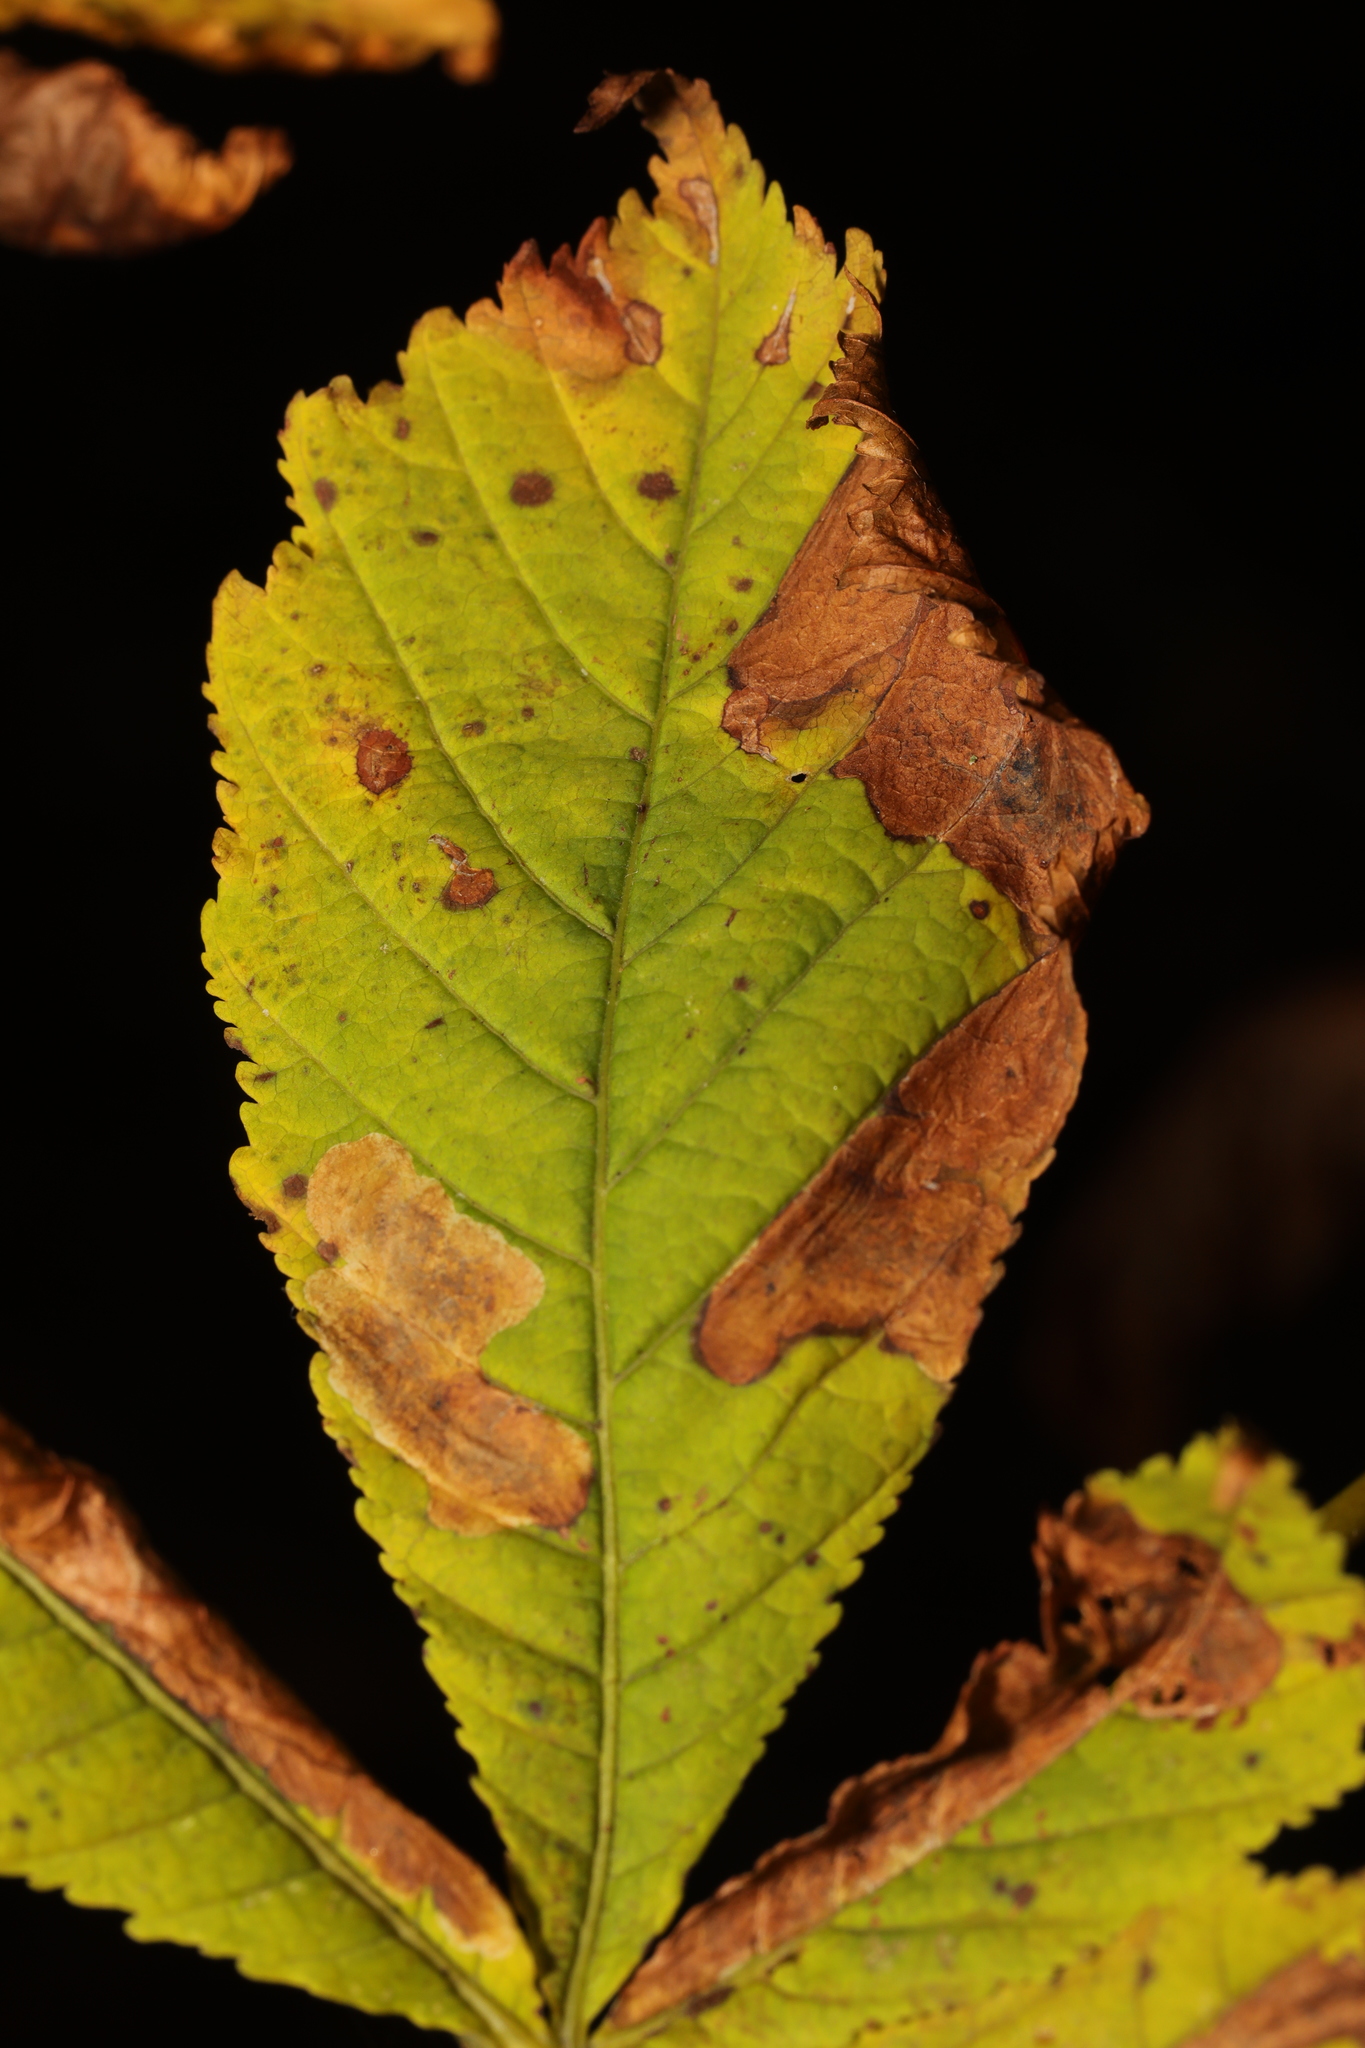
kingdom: Animalia
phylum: Arthropoda
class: Insecta
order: Lepidoptera
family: Gracillariidae
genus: Cameraria
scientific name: Cameraria ohridella
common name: Horse-chestnut leaf-miner
